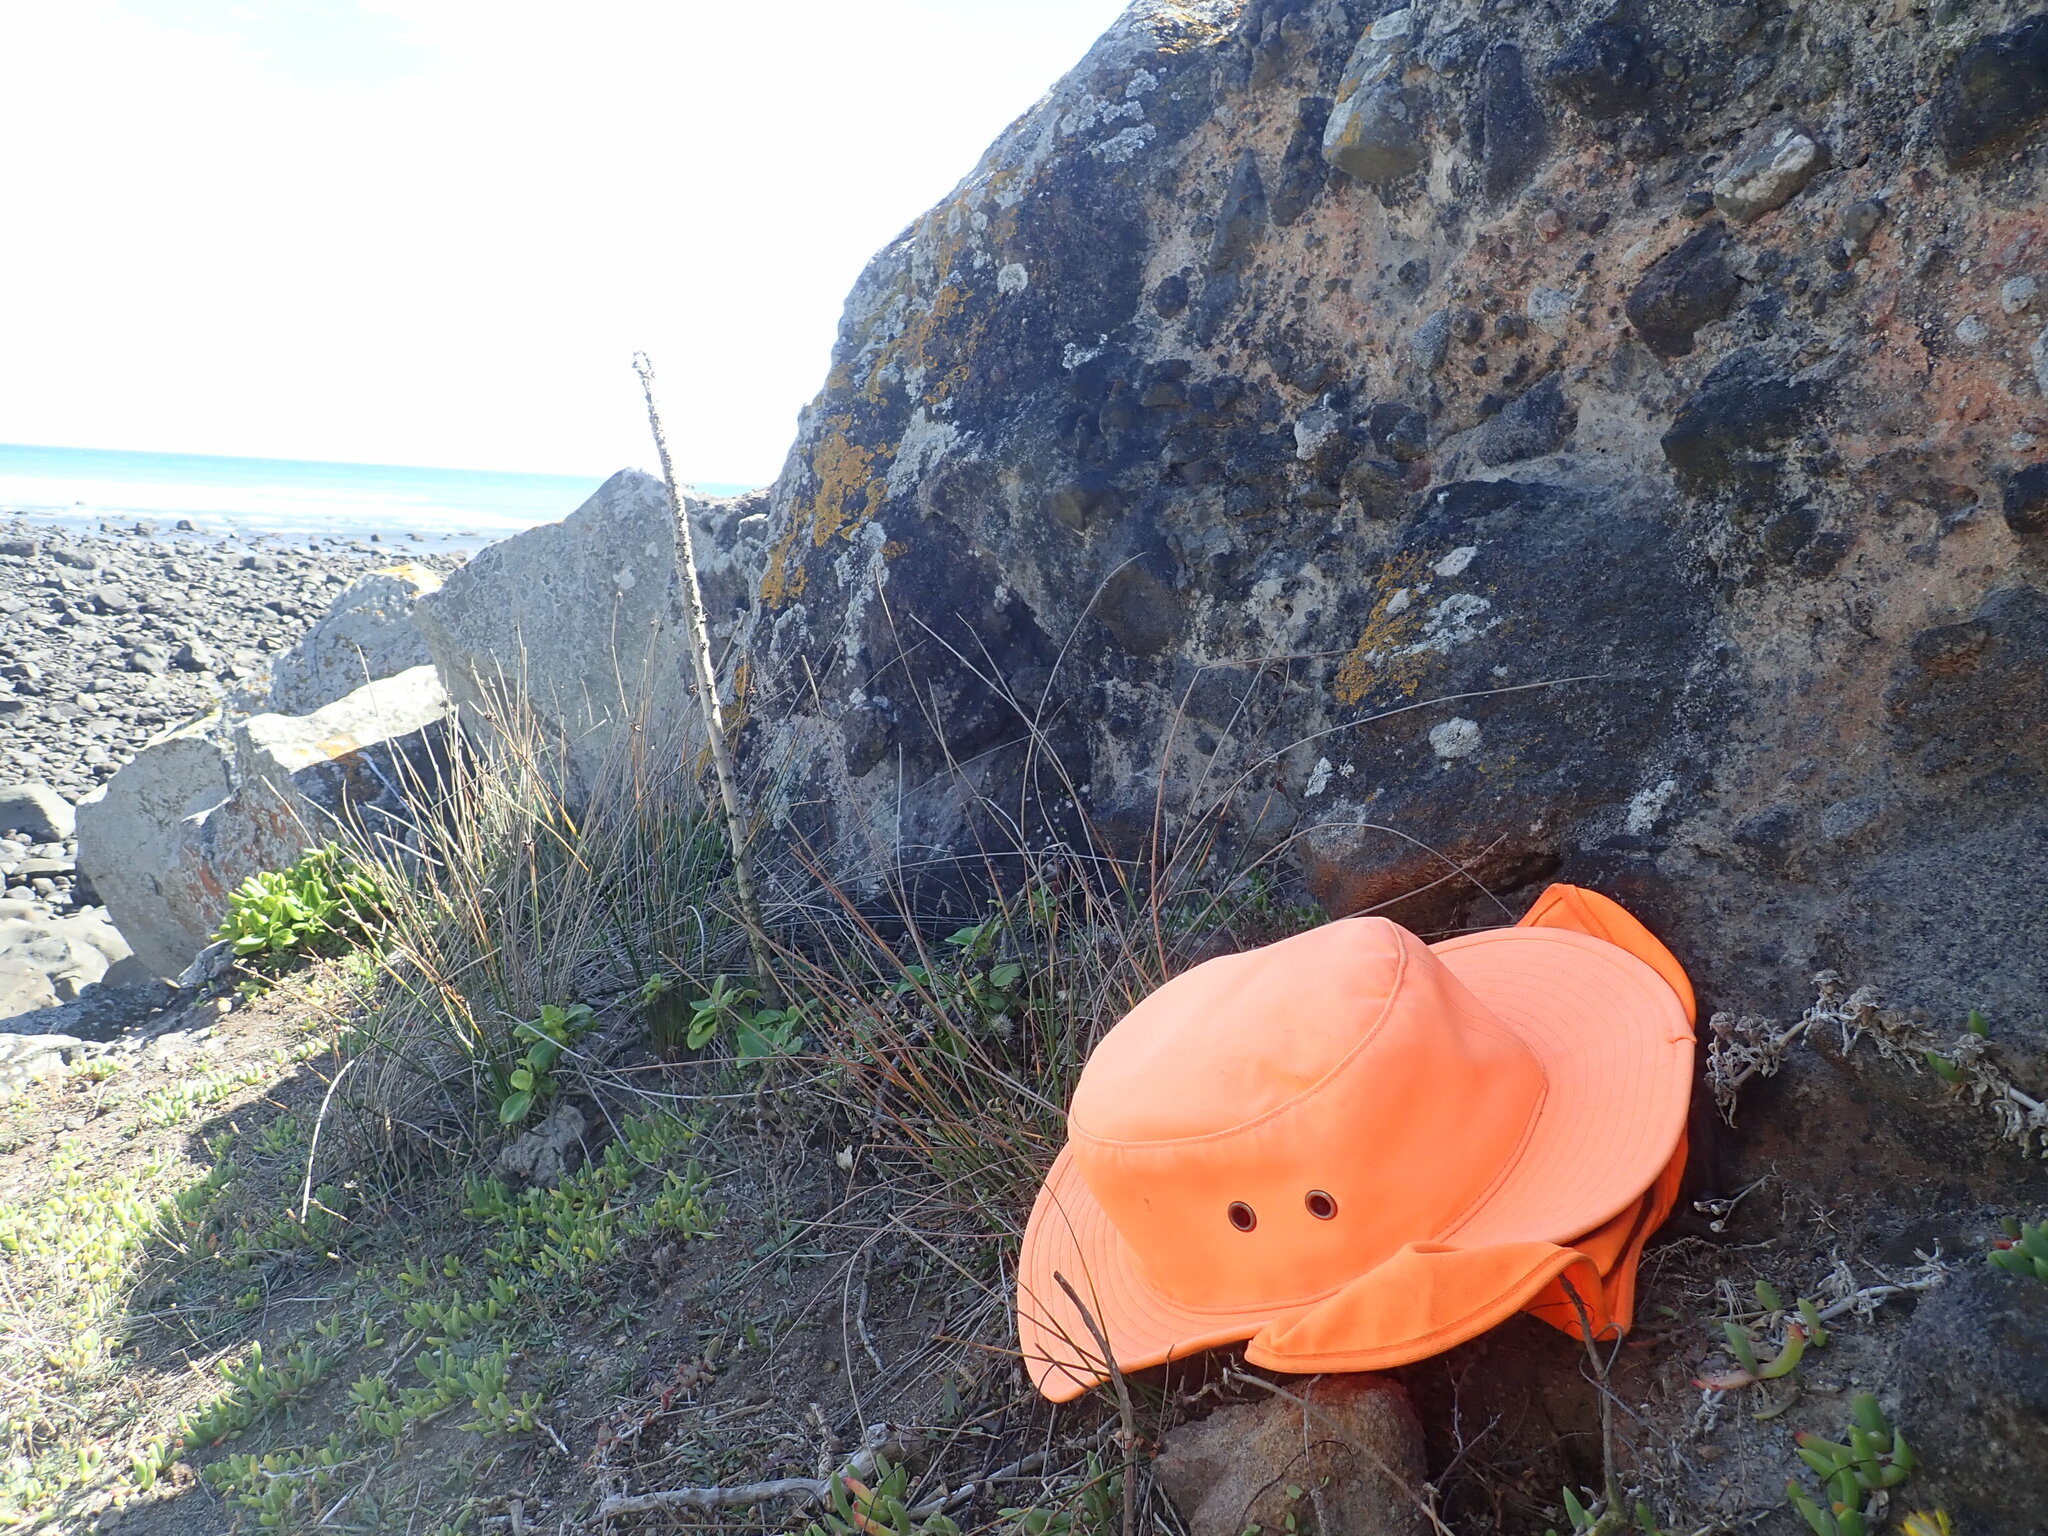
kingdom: Plantae
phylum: Tracheophyta
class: Magnoliopsida
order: Asterales
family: Campanulaceae
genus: Lobelia
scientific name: Lobelia anceps
